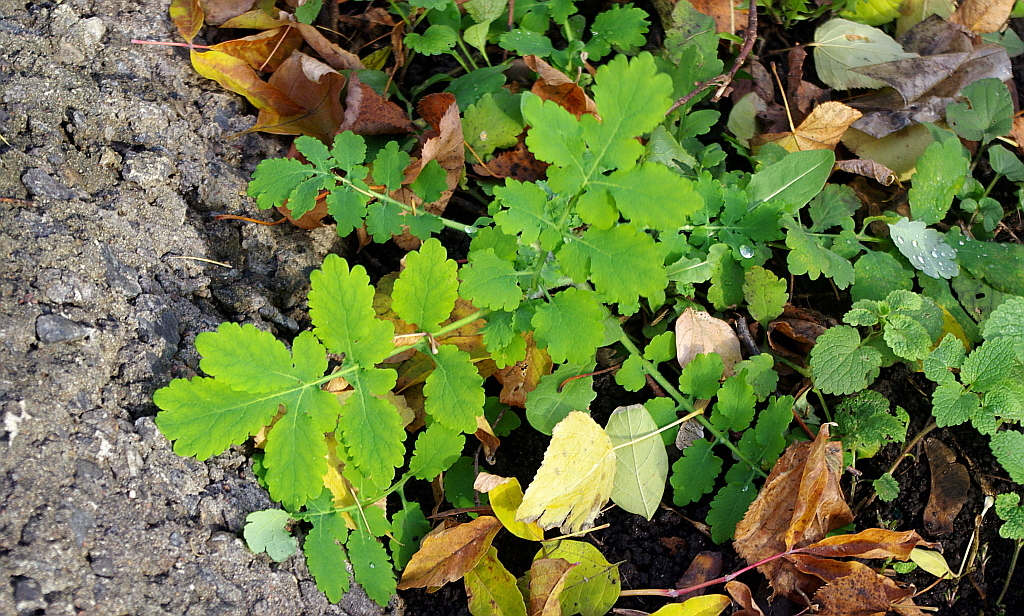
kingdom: Plantae
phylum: Tracheophyta
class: Magnoliopsida
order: Ranunculales
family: Papaveraceae
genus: Chelidonium
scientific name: Chelidonium majus
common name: Greater celandine
